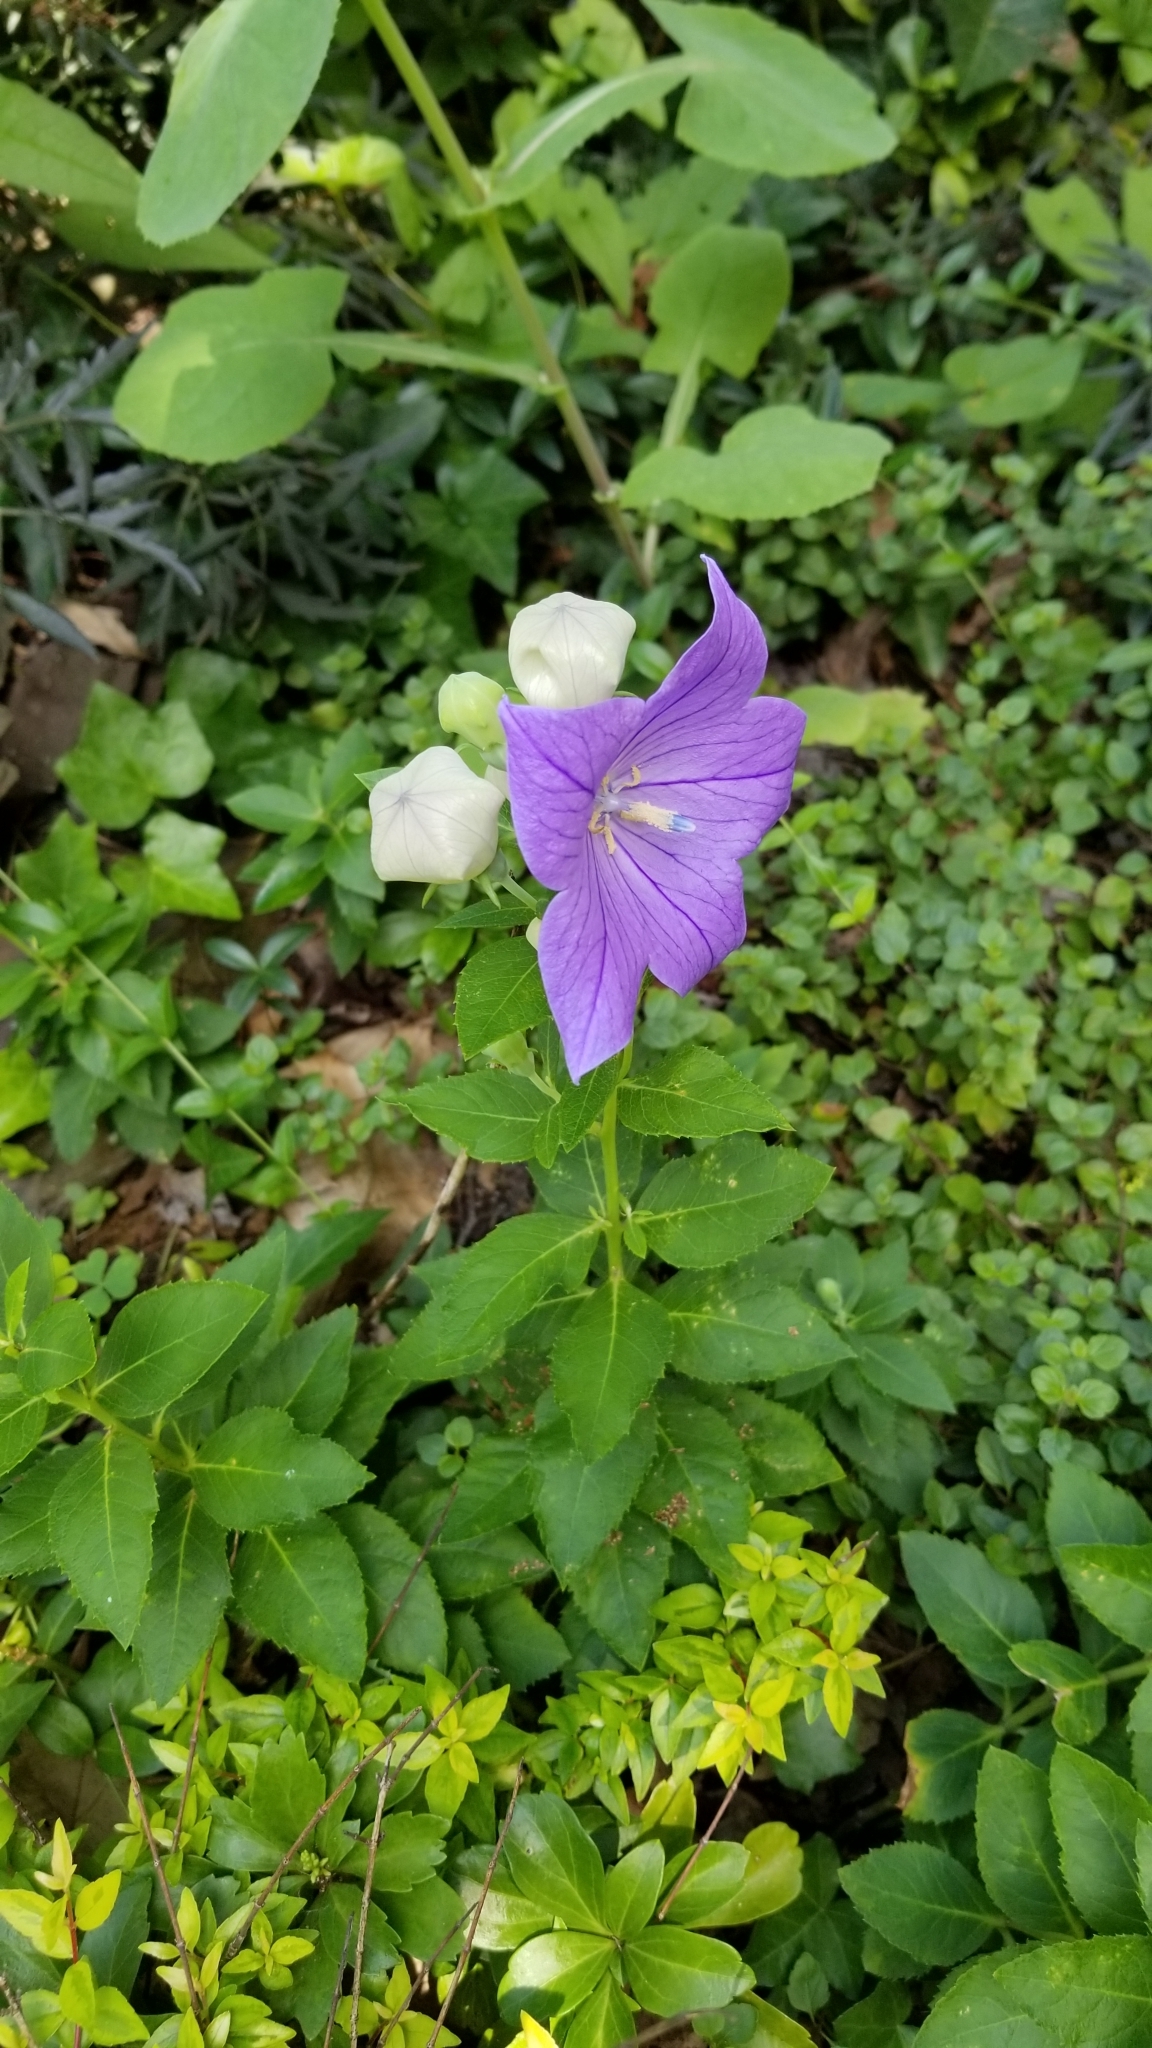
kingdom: Plantae
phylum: Tracheophyta
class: Magnoliopsida
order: Asterales
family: Campanulaceae
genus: Platycodon
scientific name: Platycodon grandiflorus
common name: Balloon-flower
